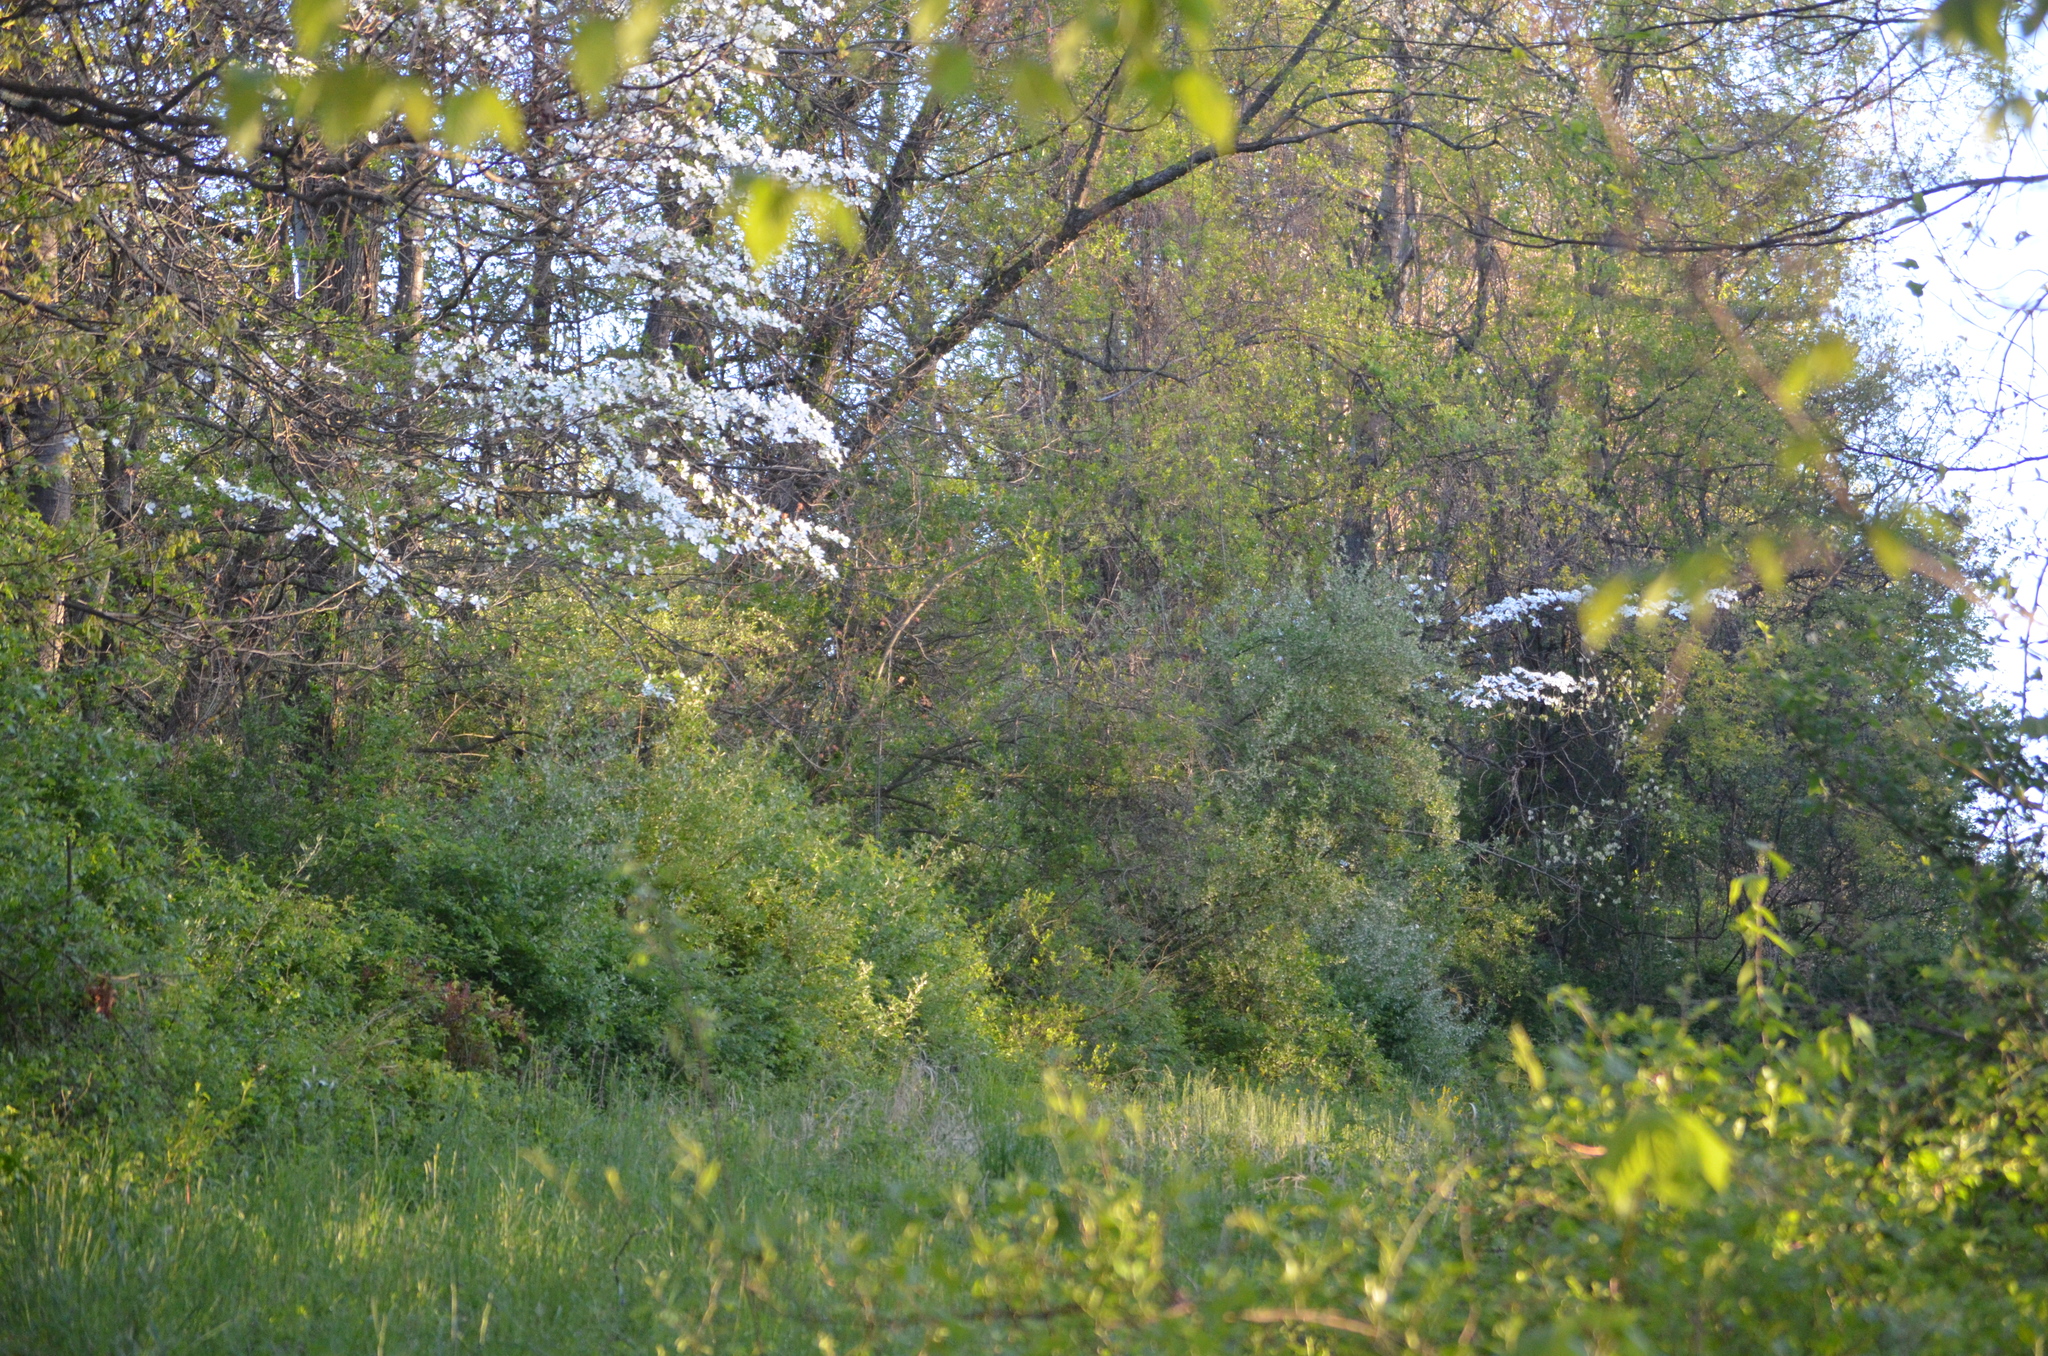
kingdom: Plantae
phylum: Tracheophyta
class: Magnoliopsida
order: Cornales
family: Cornaceae
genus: Cornus
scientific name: Cornus florida
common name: Flowering dogwood
